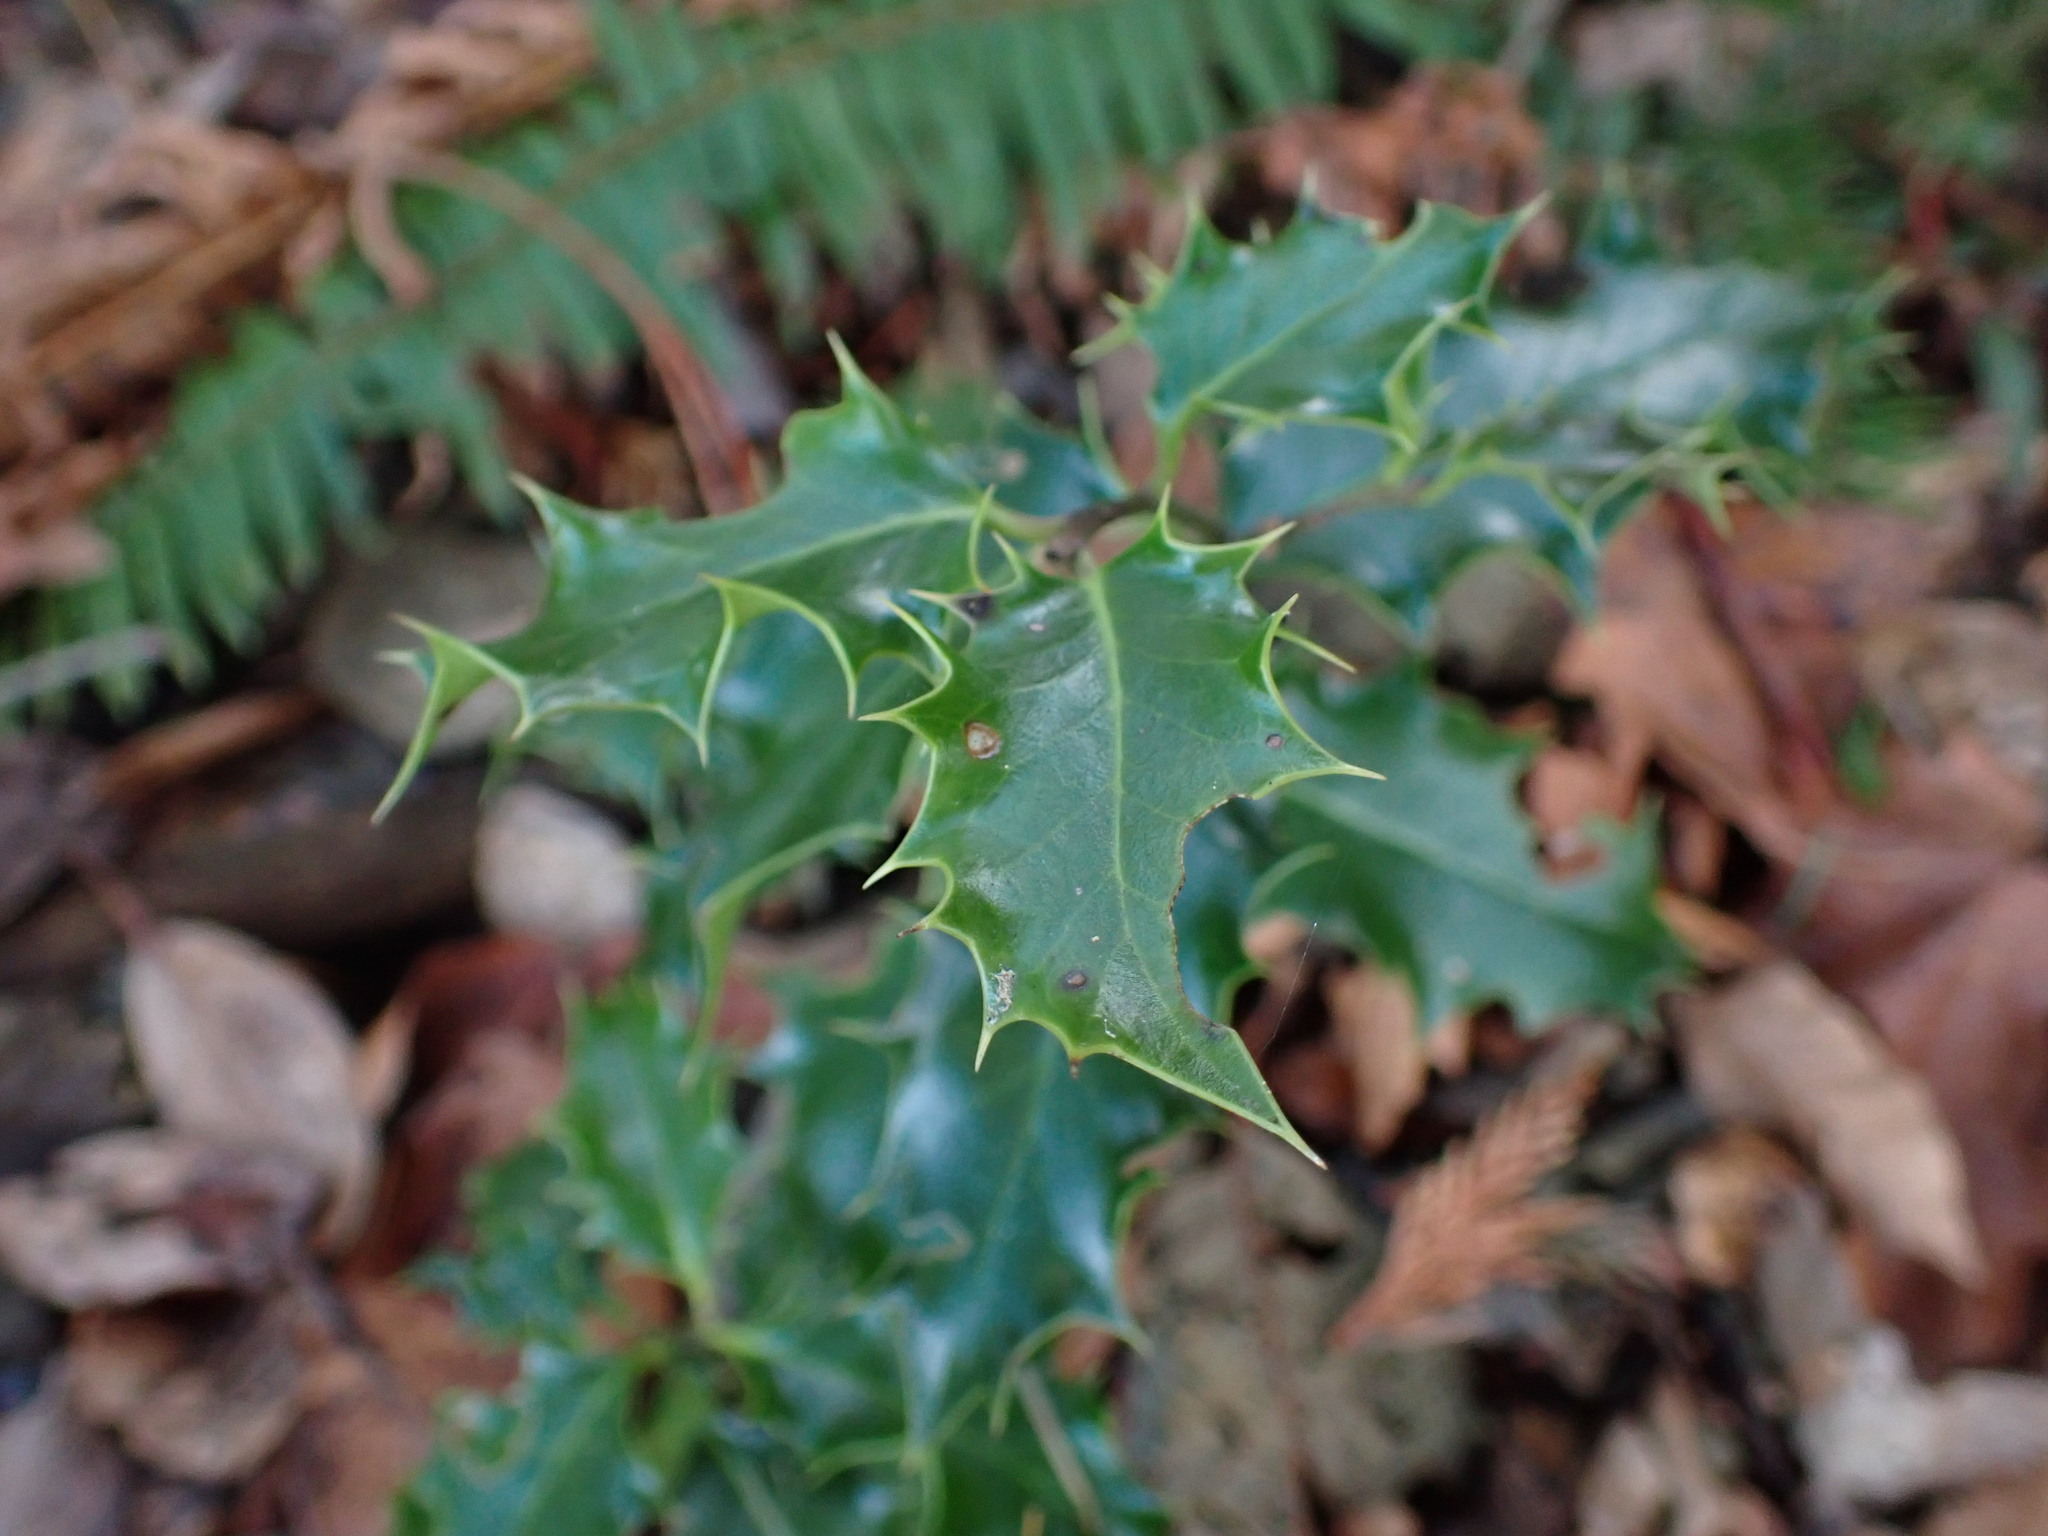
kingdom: Plantae
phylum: Tracheophyta
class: Magnoliopsida
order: Aquifoliales
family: Aquifoliaceae
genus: Ilex
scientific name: Ilex aquifolium
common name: English holly
